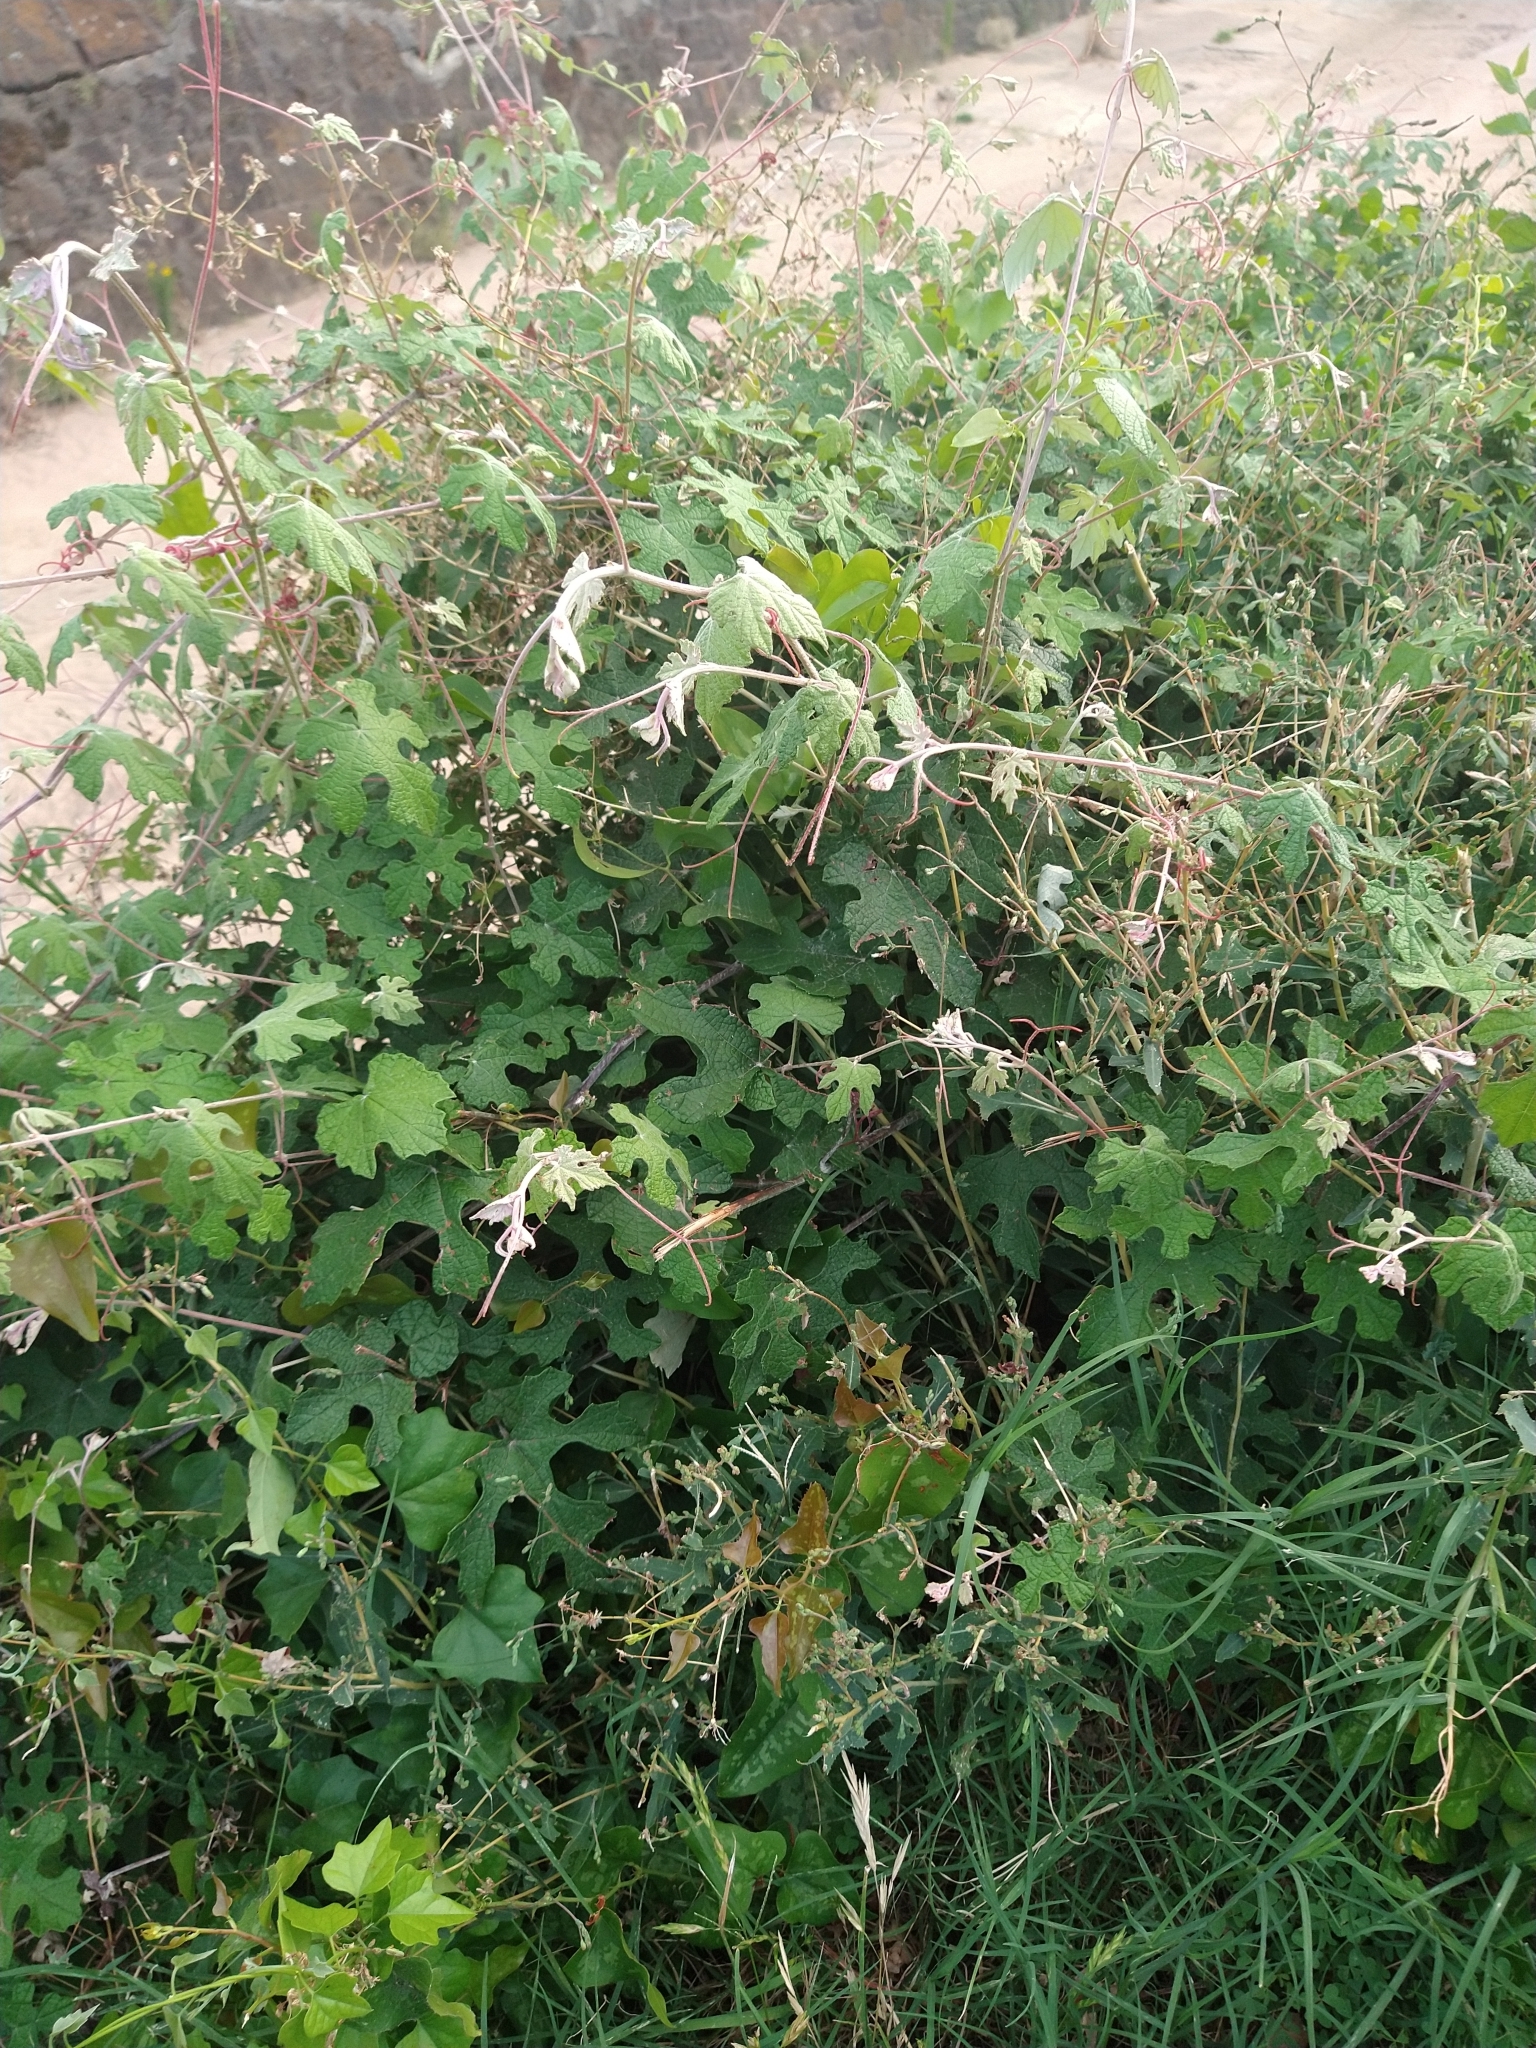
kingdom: Plantae
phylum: Tracheophyta
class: Magnoliopsida
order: Vitales
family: Vitaceae
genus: Vitis
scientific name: Vitis mustangensis
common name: Mustang grape
